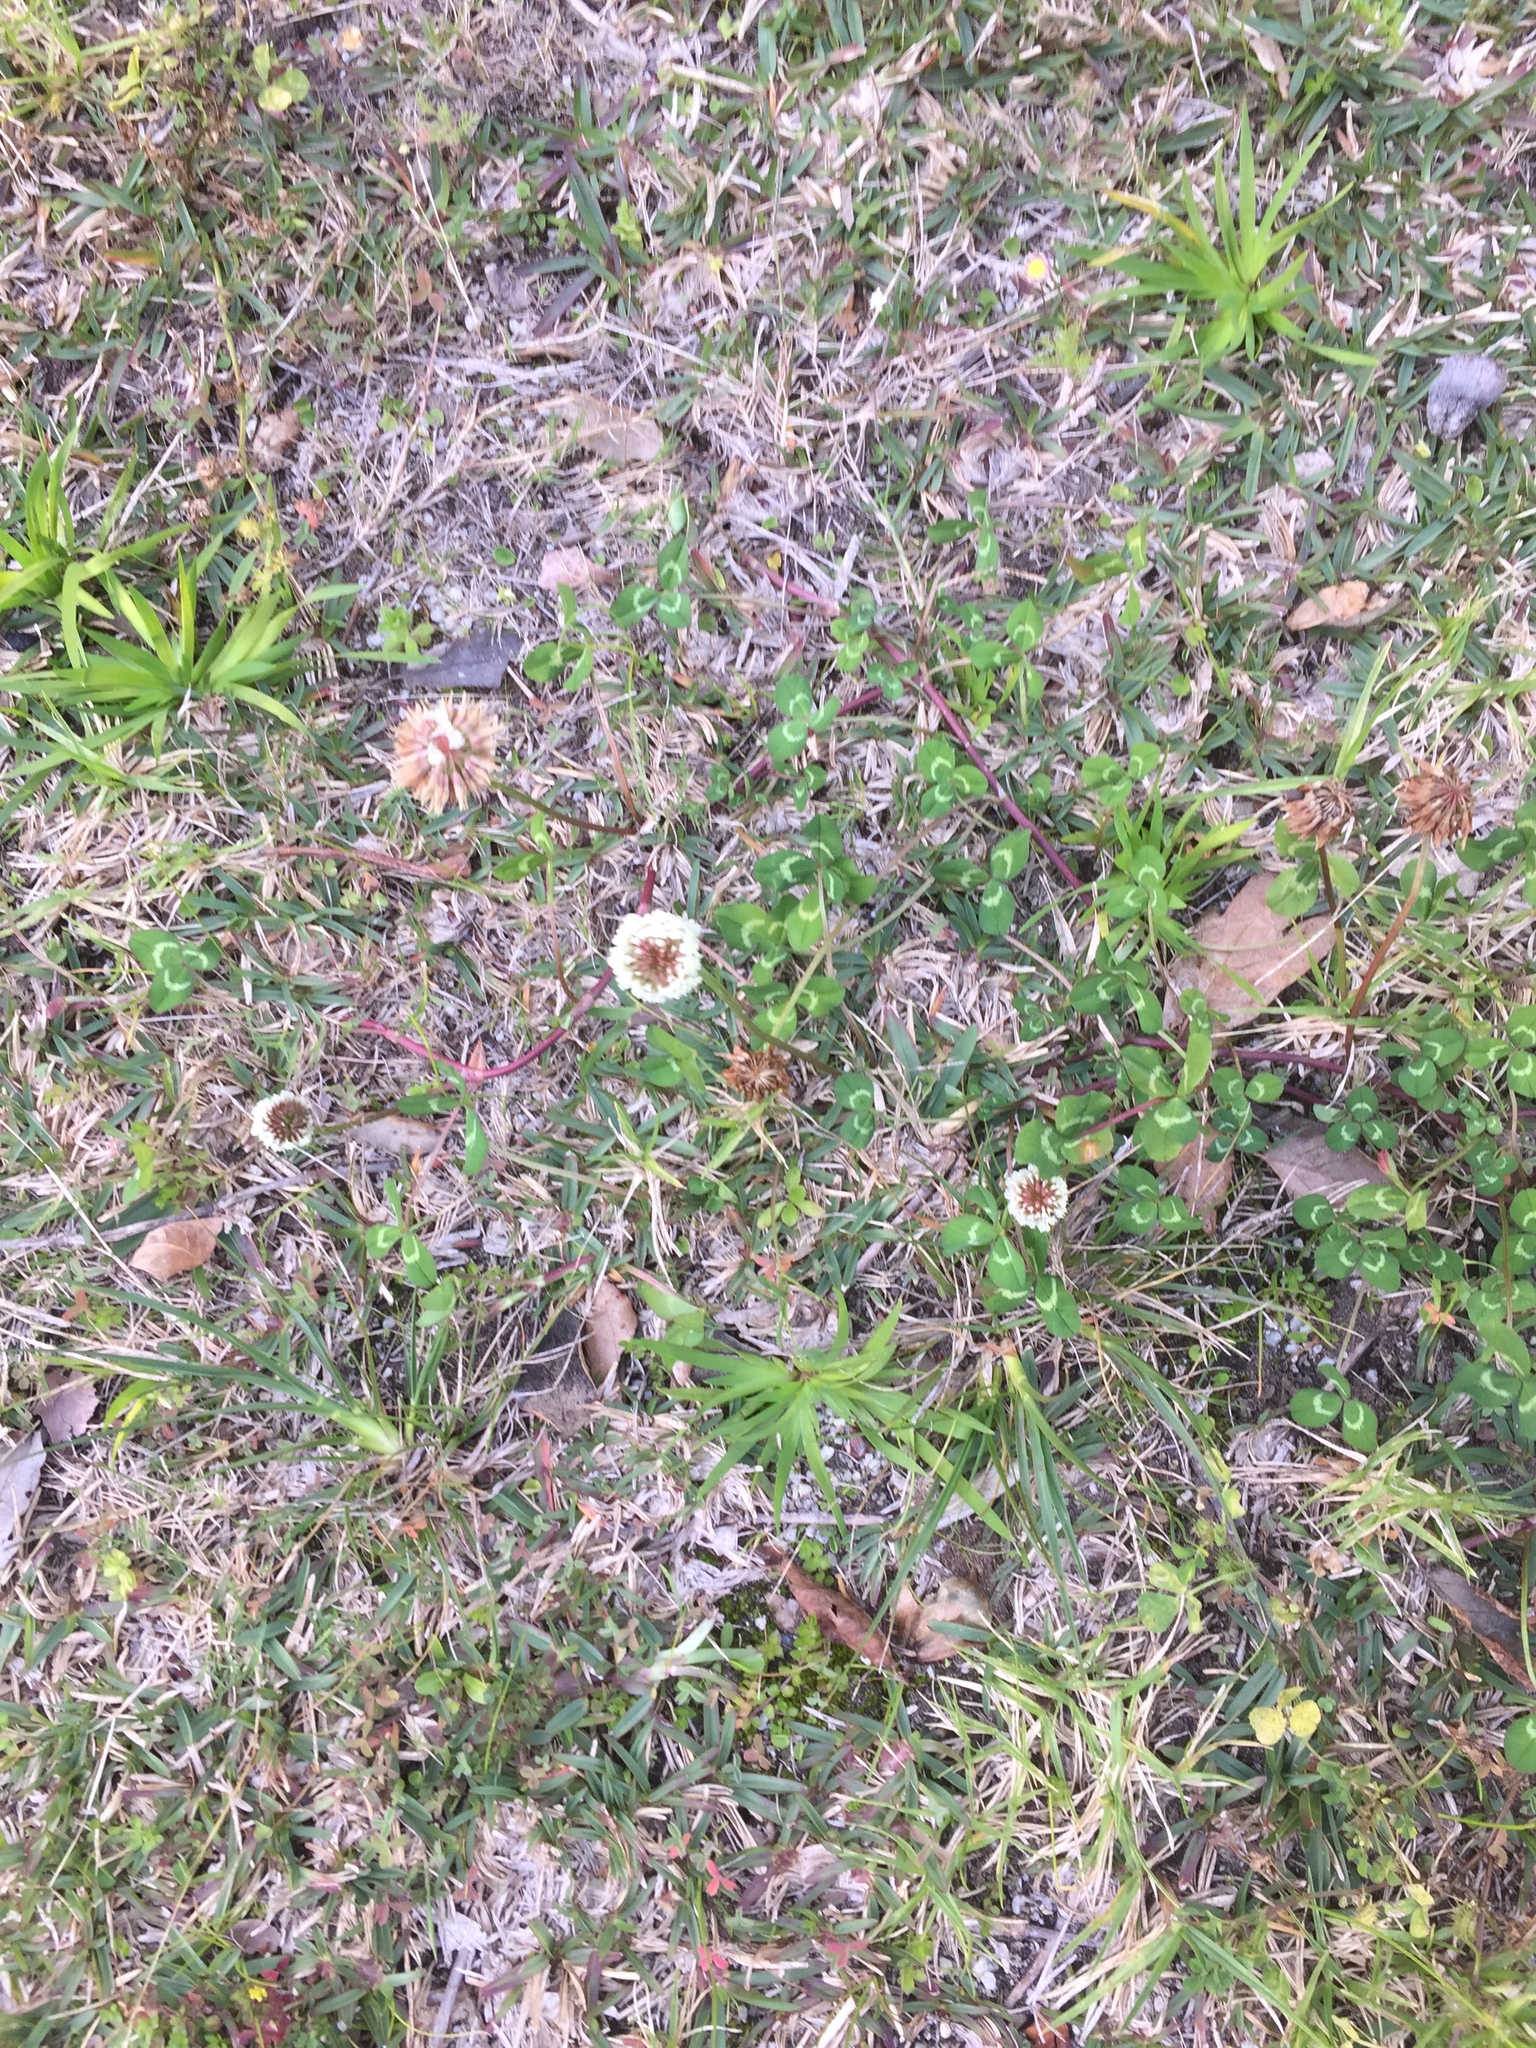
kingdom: Plantae
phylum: Tracheophyta
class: Magnoliopsida
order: Fabales
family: Fabaceae
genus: Trifolium
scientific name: Trifolium repens
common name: White clover
